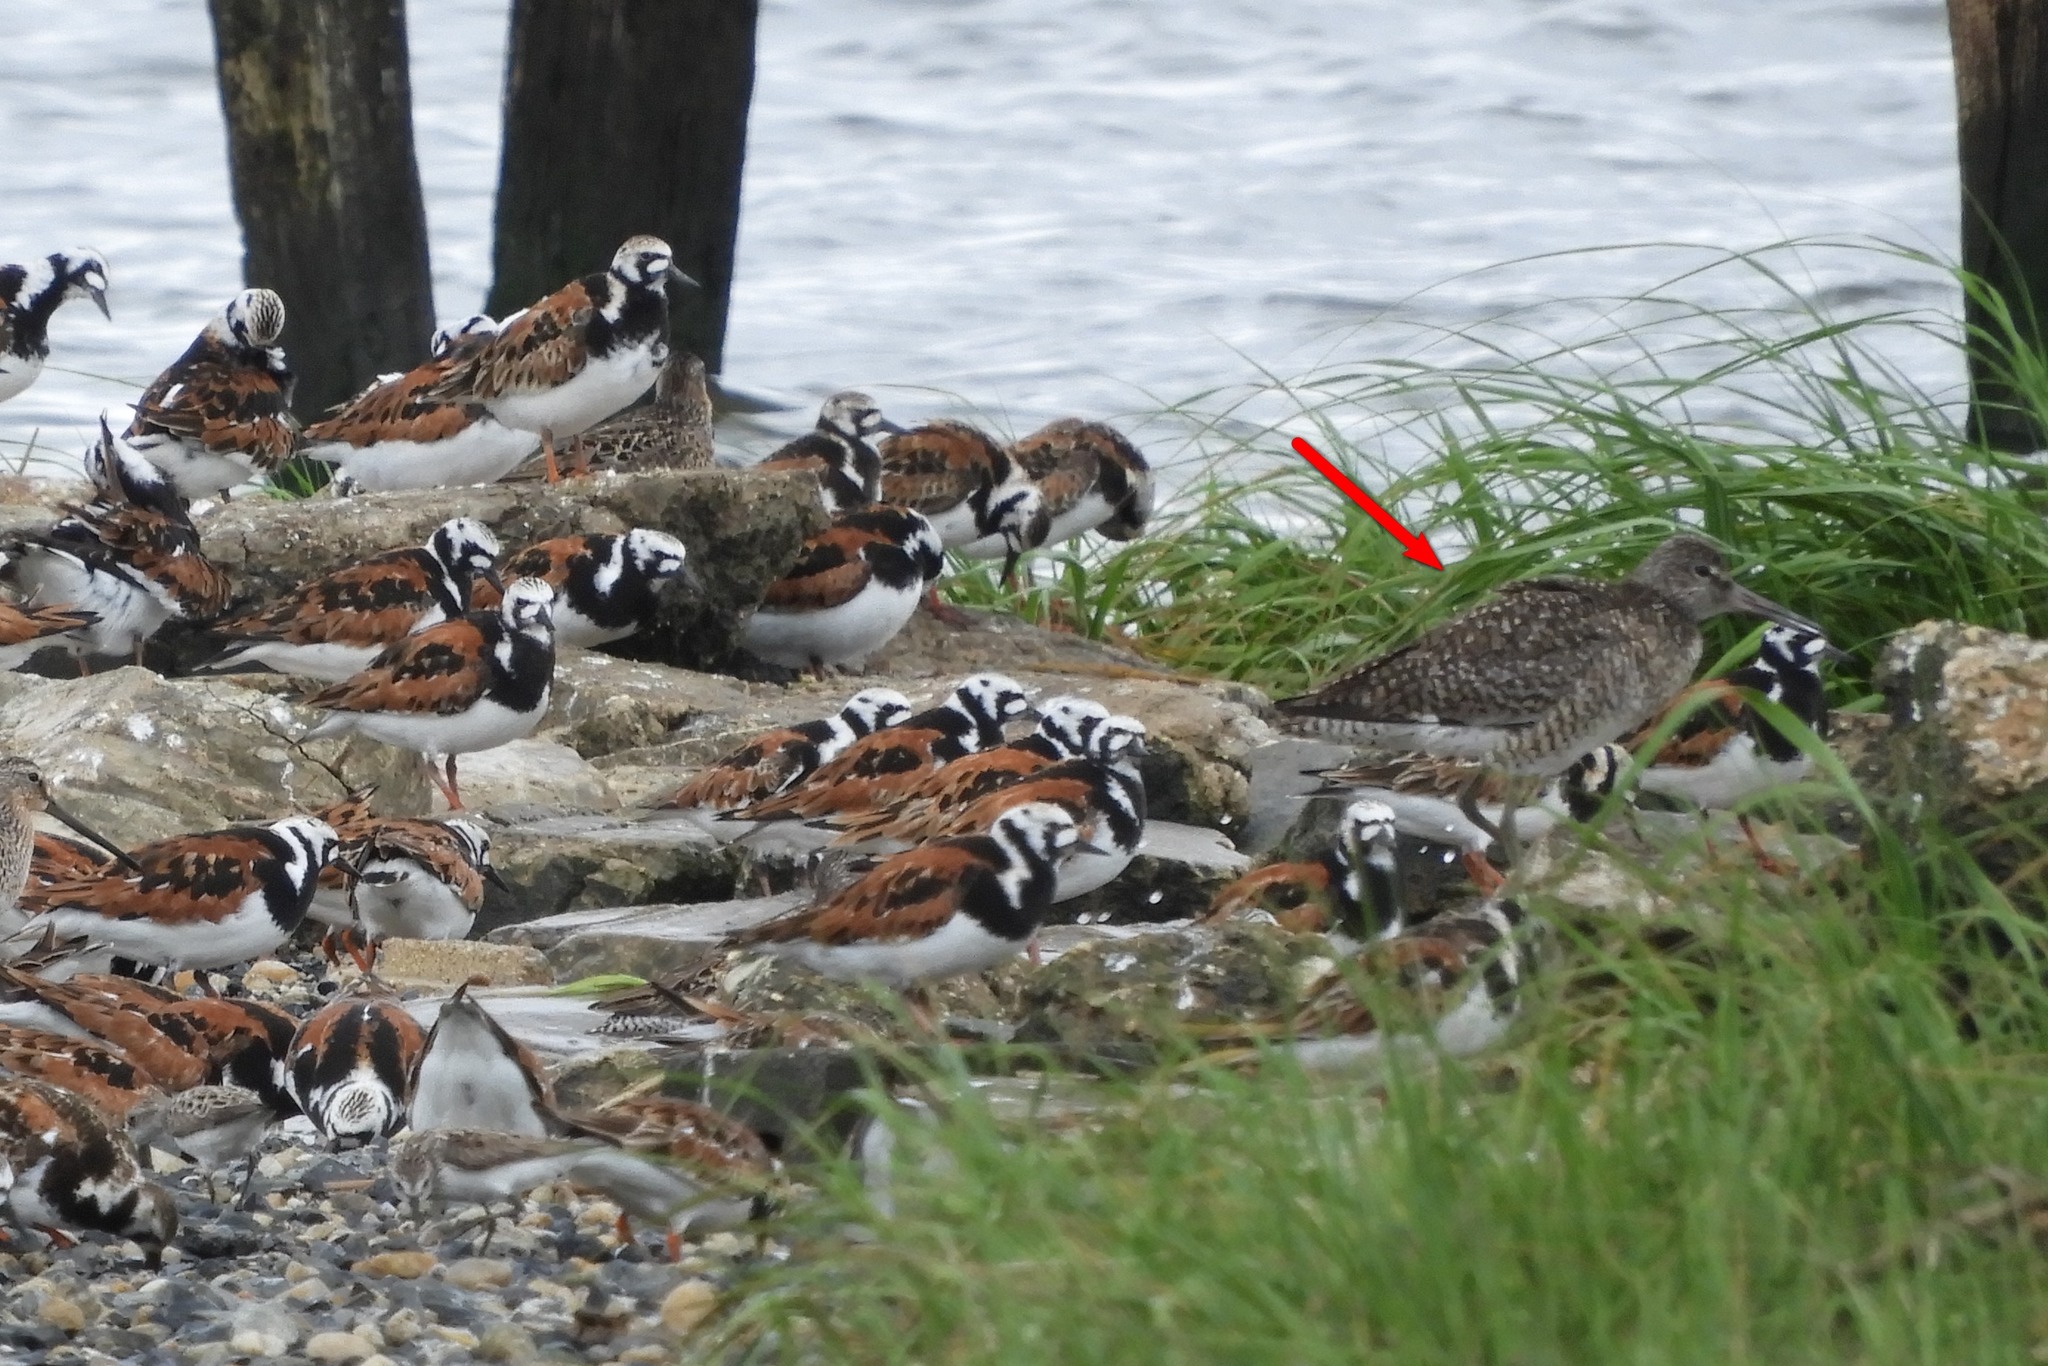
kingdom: Animalia
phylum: Chordata
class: Aves
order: Charadriiformes
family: Scolopacidae
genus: Tringa
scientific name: Tringa semipalmata
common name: Willet
